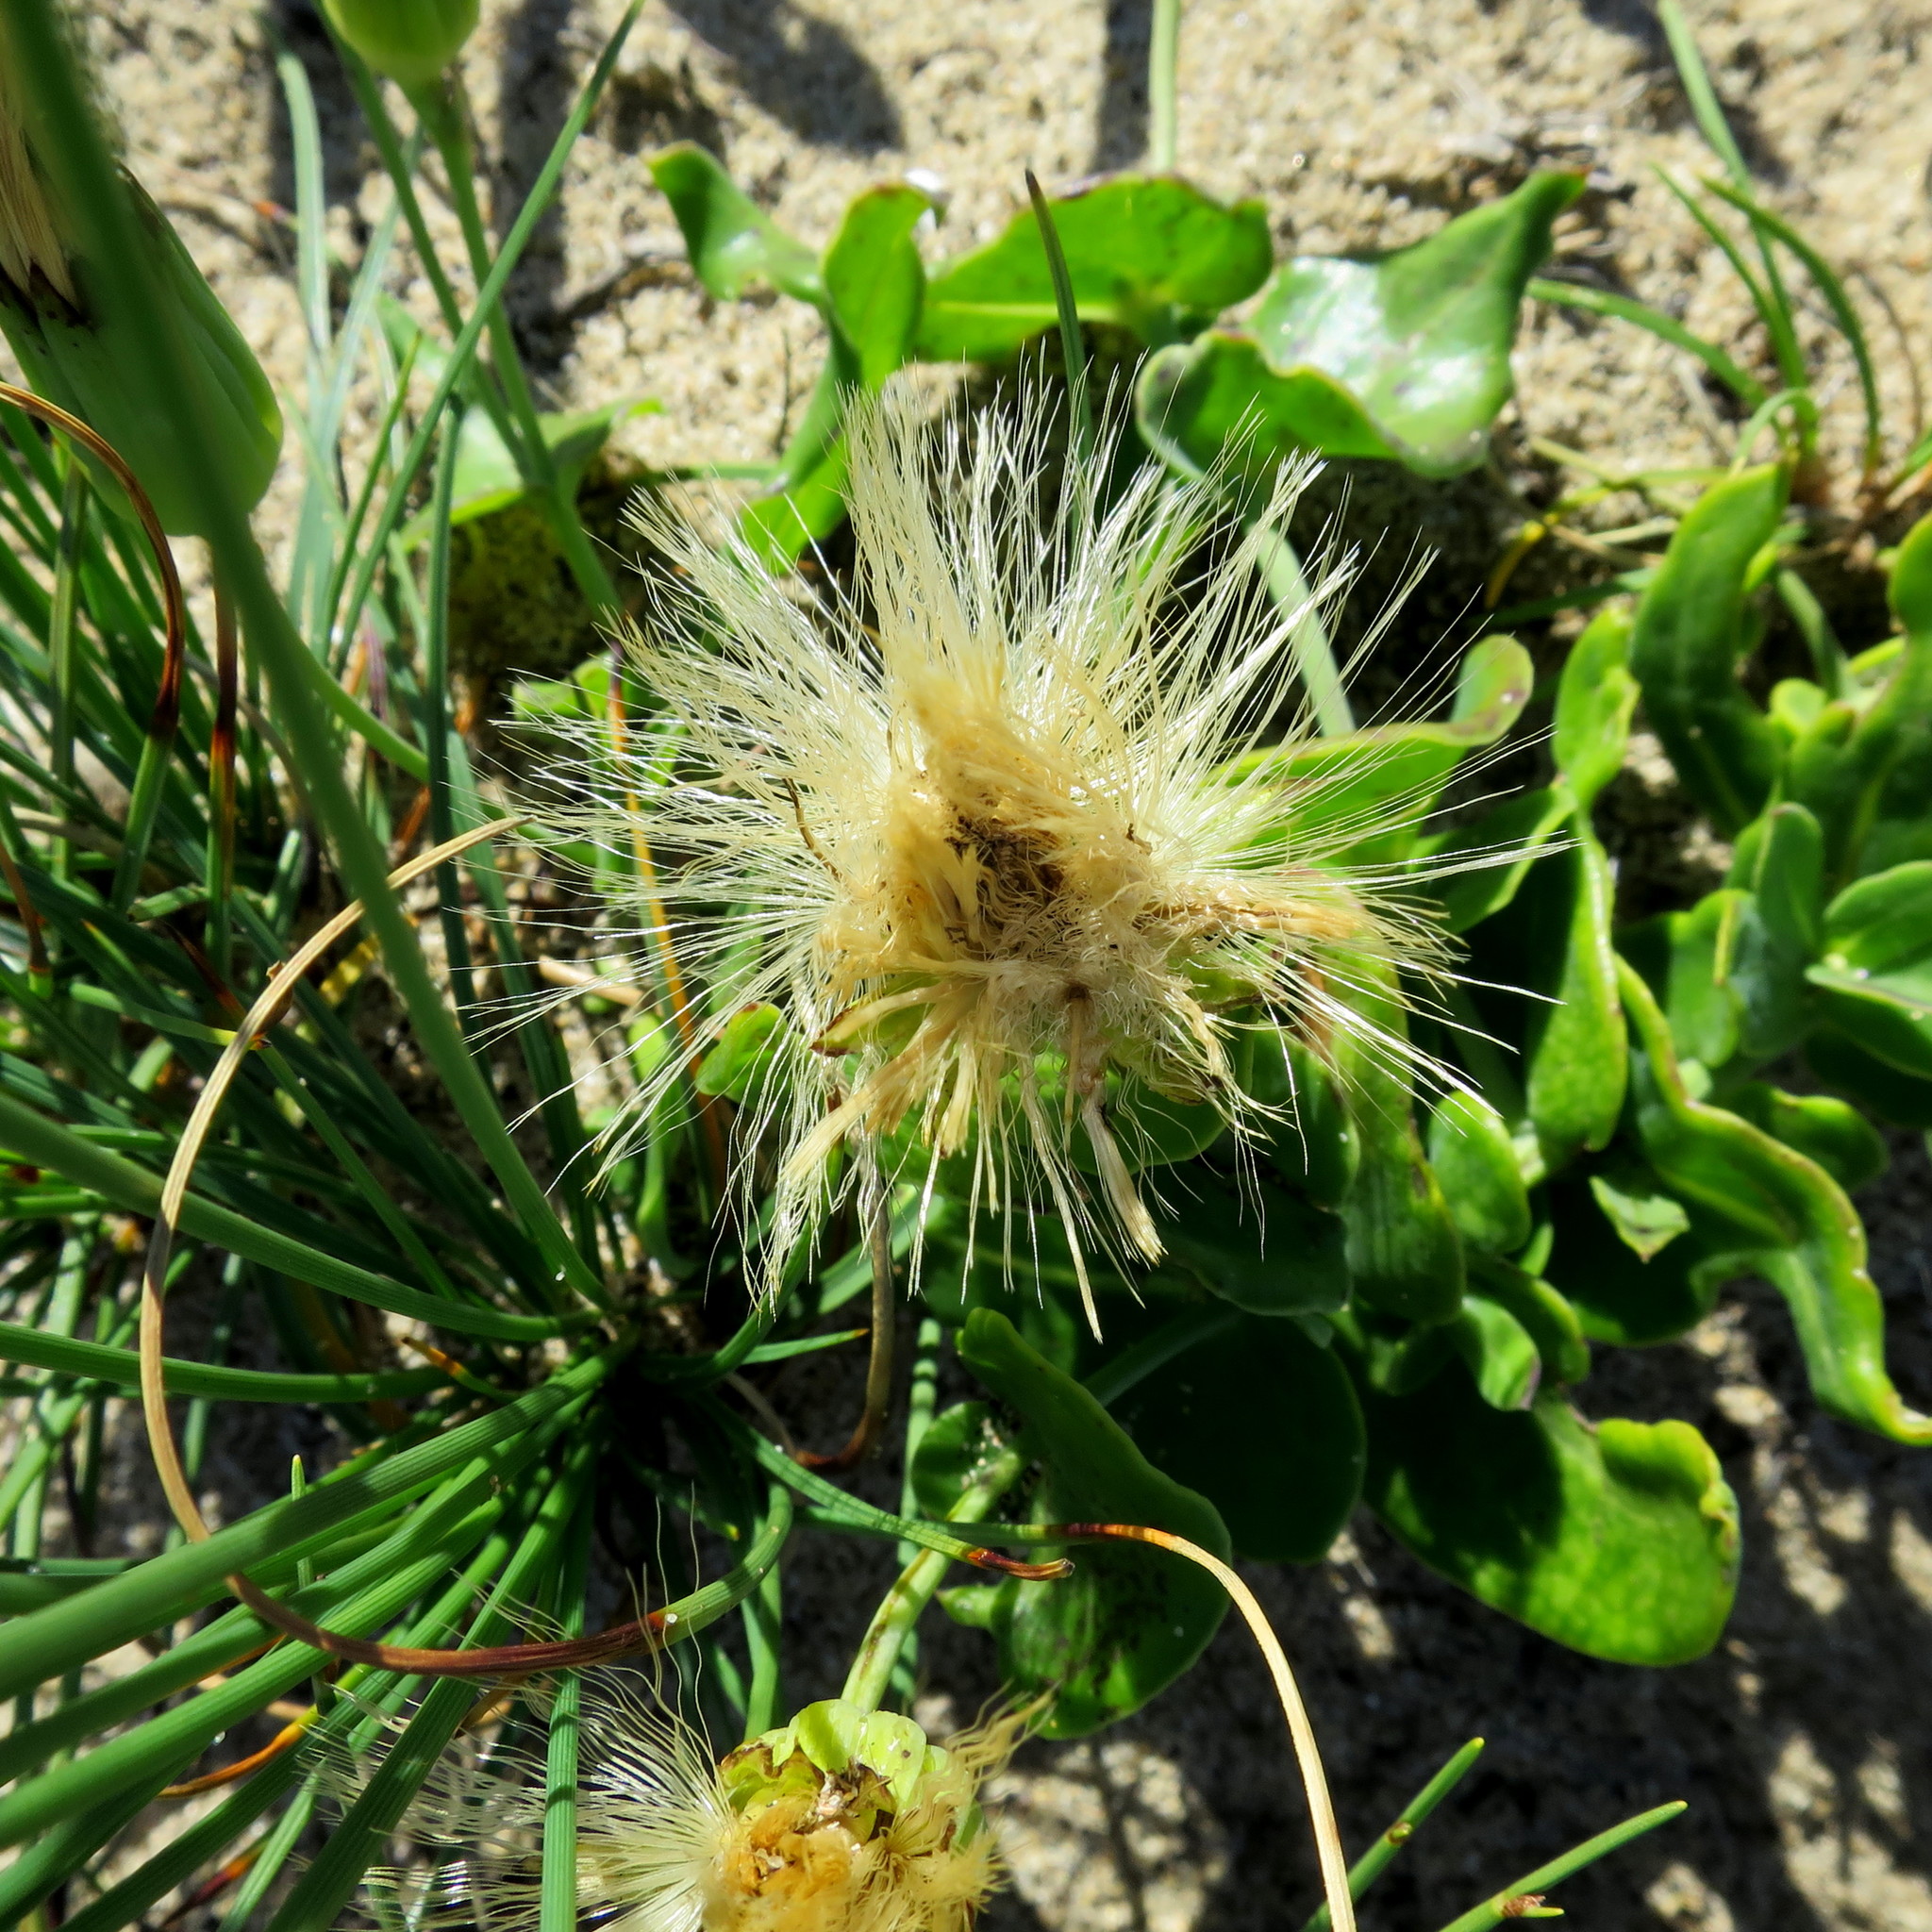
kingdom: Plantae
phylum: Tracheophyta
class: Magnoliopsida
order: Asterales
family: Asteraceae
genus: Othonna
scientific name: Othonna undulosa
